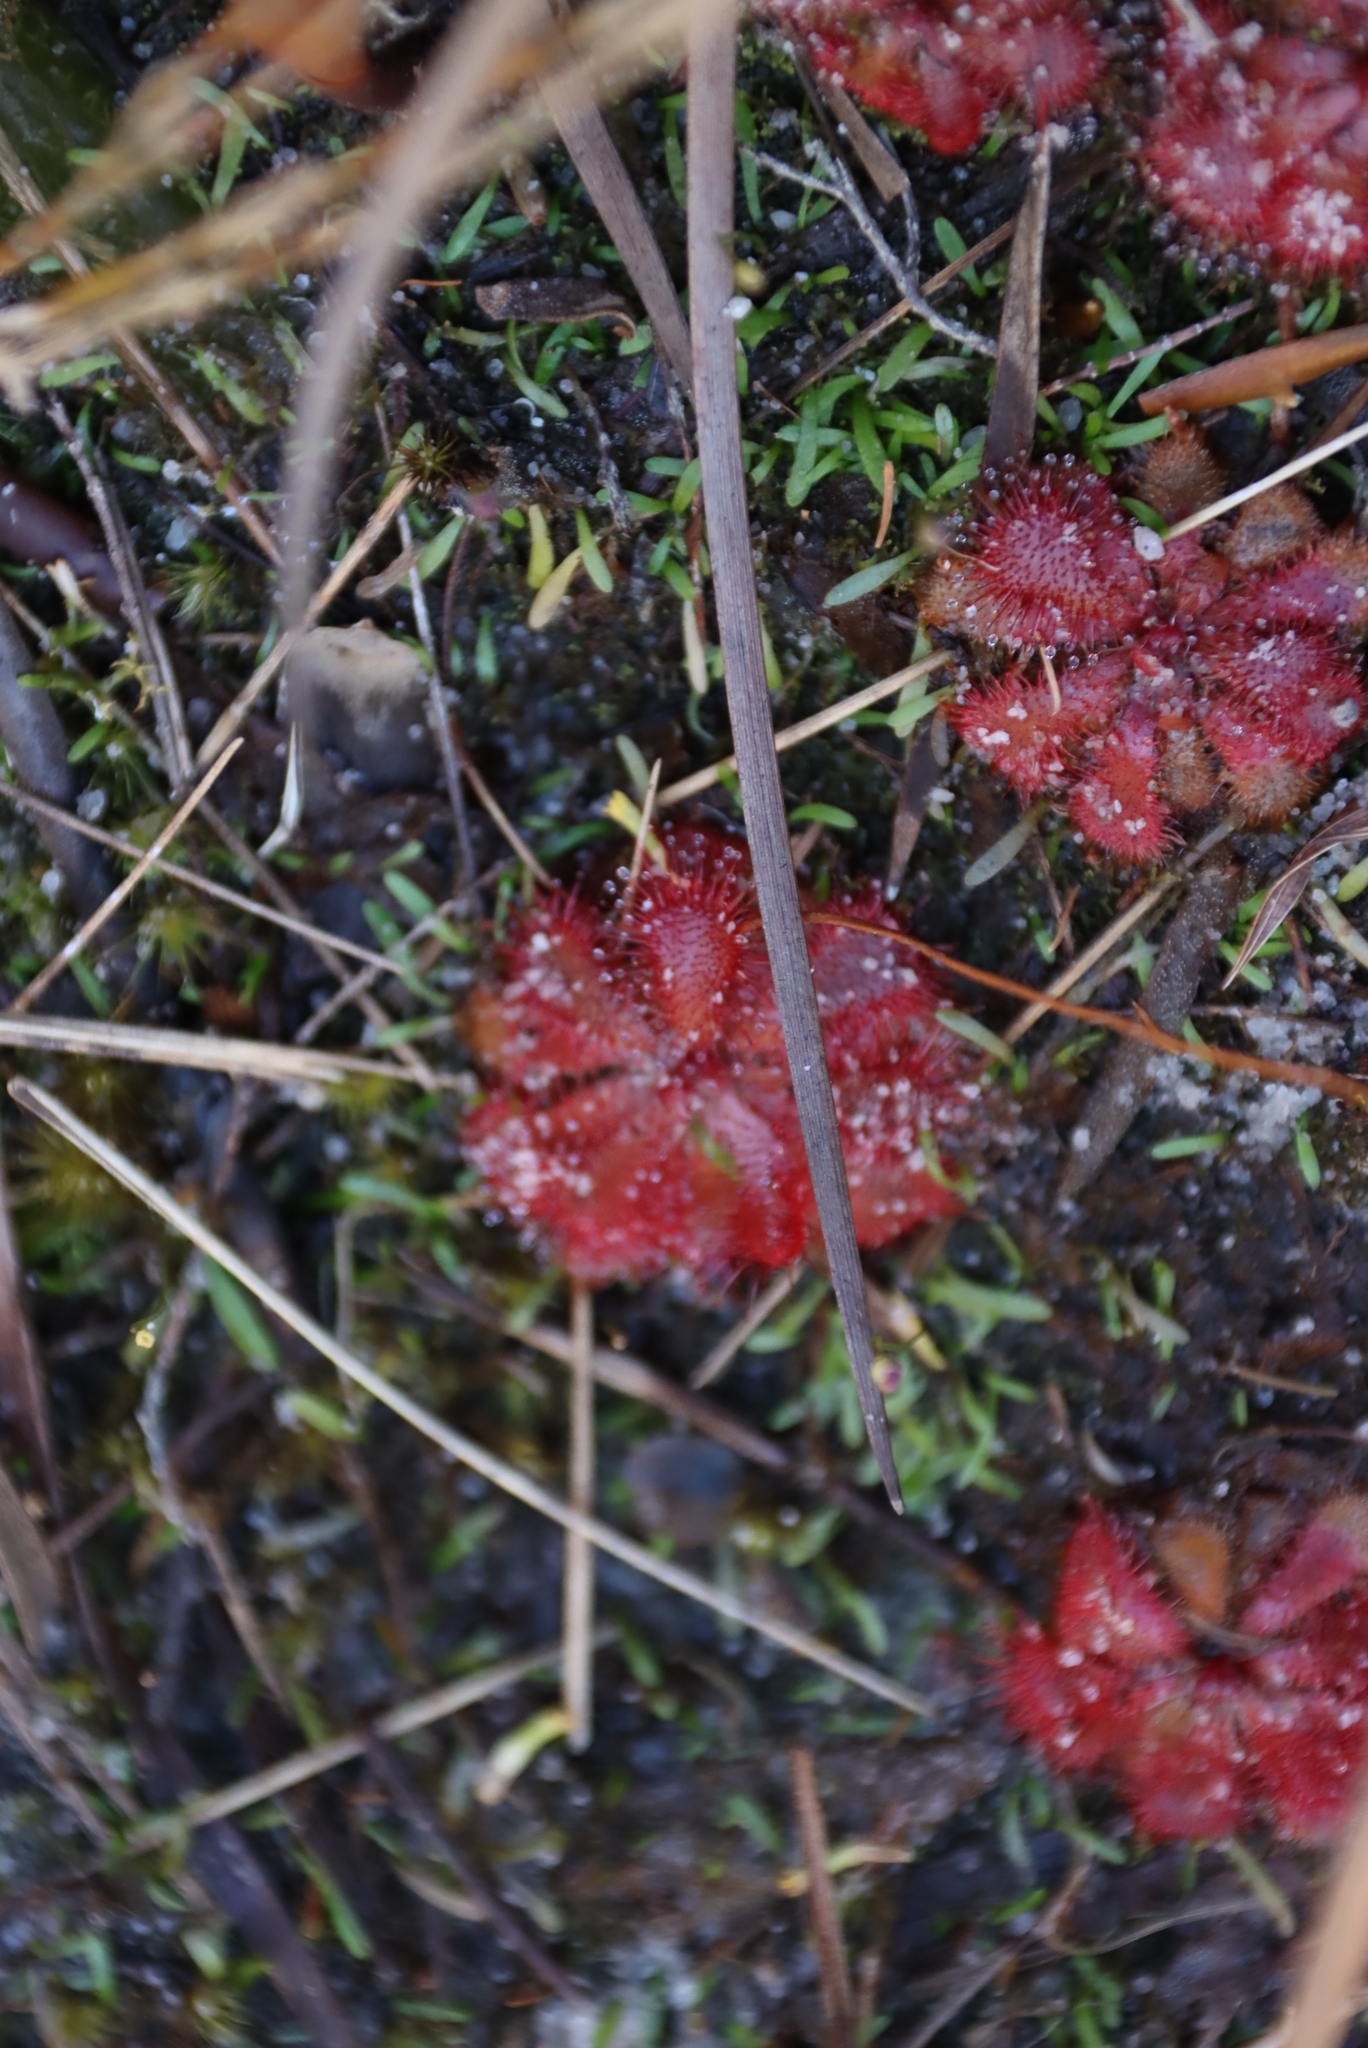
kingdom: Plantae
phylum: Tracheophyta
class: Magnoliopsida
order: Caryophyllales
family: Droseraceae
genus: Drosera
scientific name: Drosera aliciae
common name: Alice sundew
